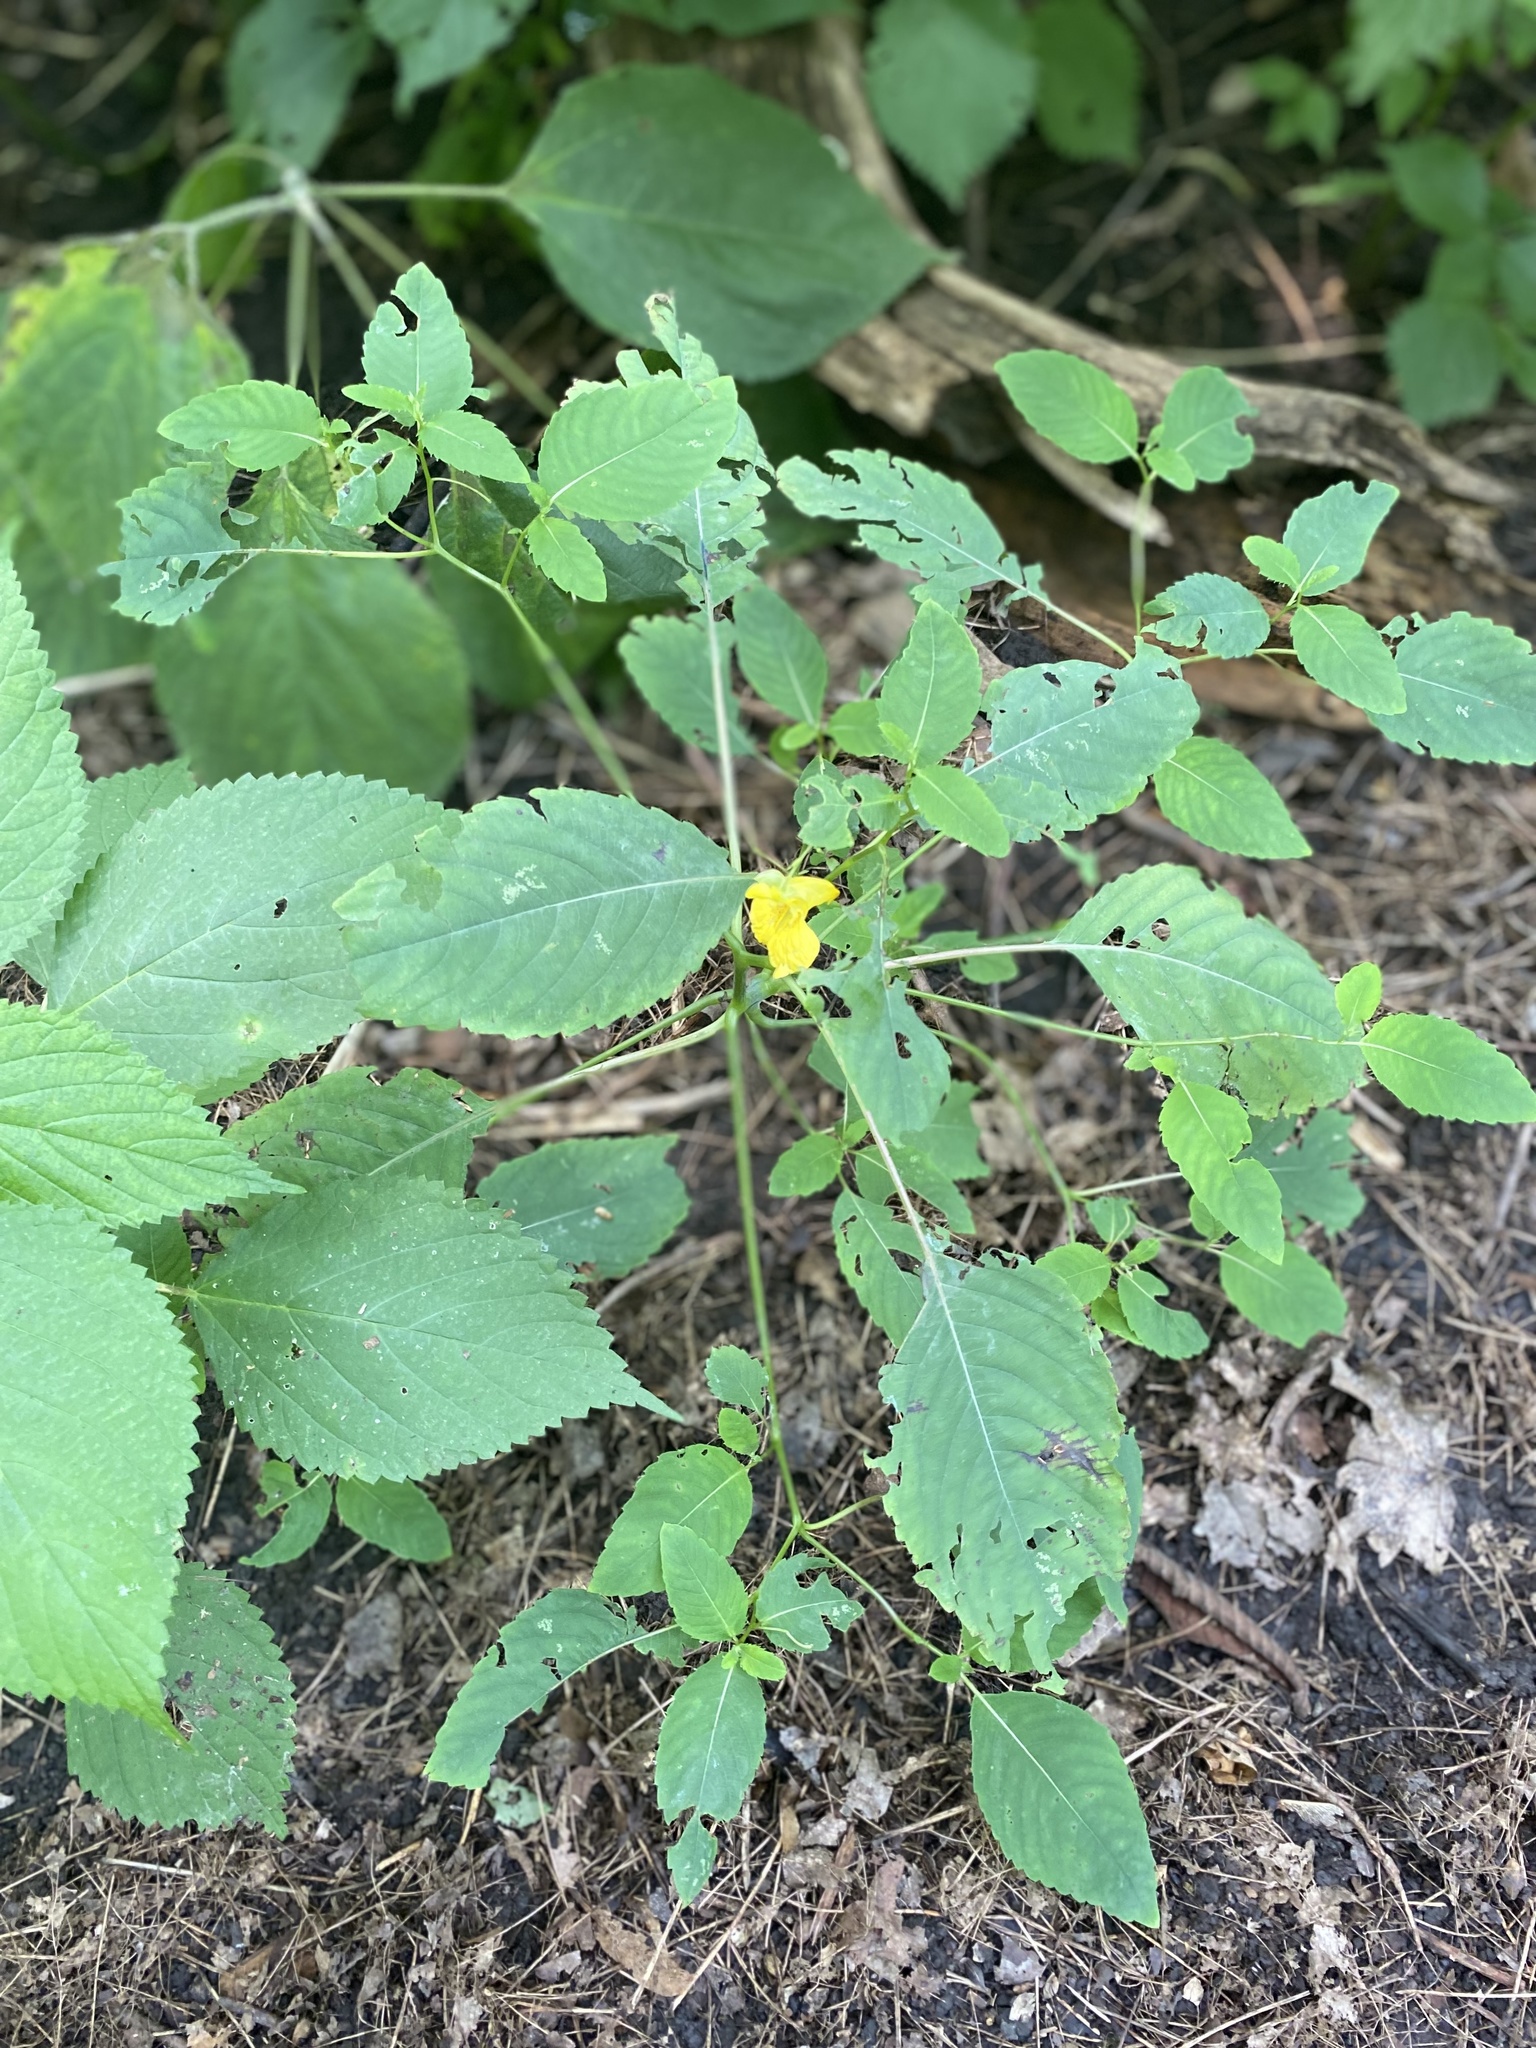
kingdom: Plantae
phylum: Tracheophyta
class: Magnoliopsida
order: Ericales
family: Balsaminaceae
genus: Impatiens
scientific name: Impatiens pallida
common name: Pale snapweed
